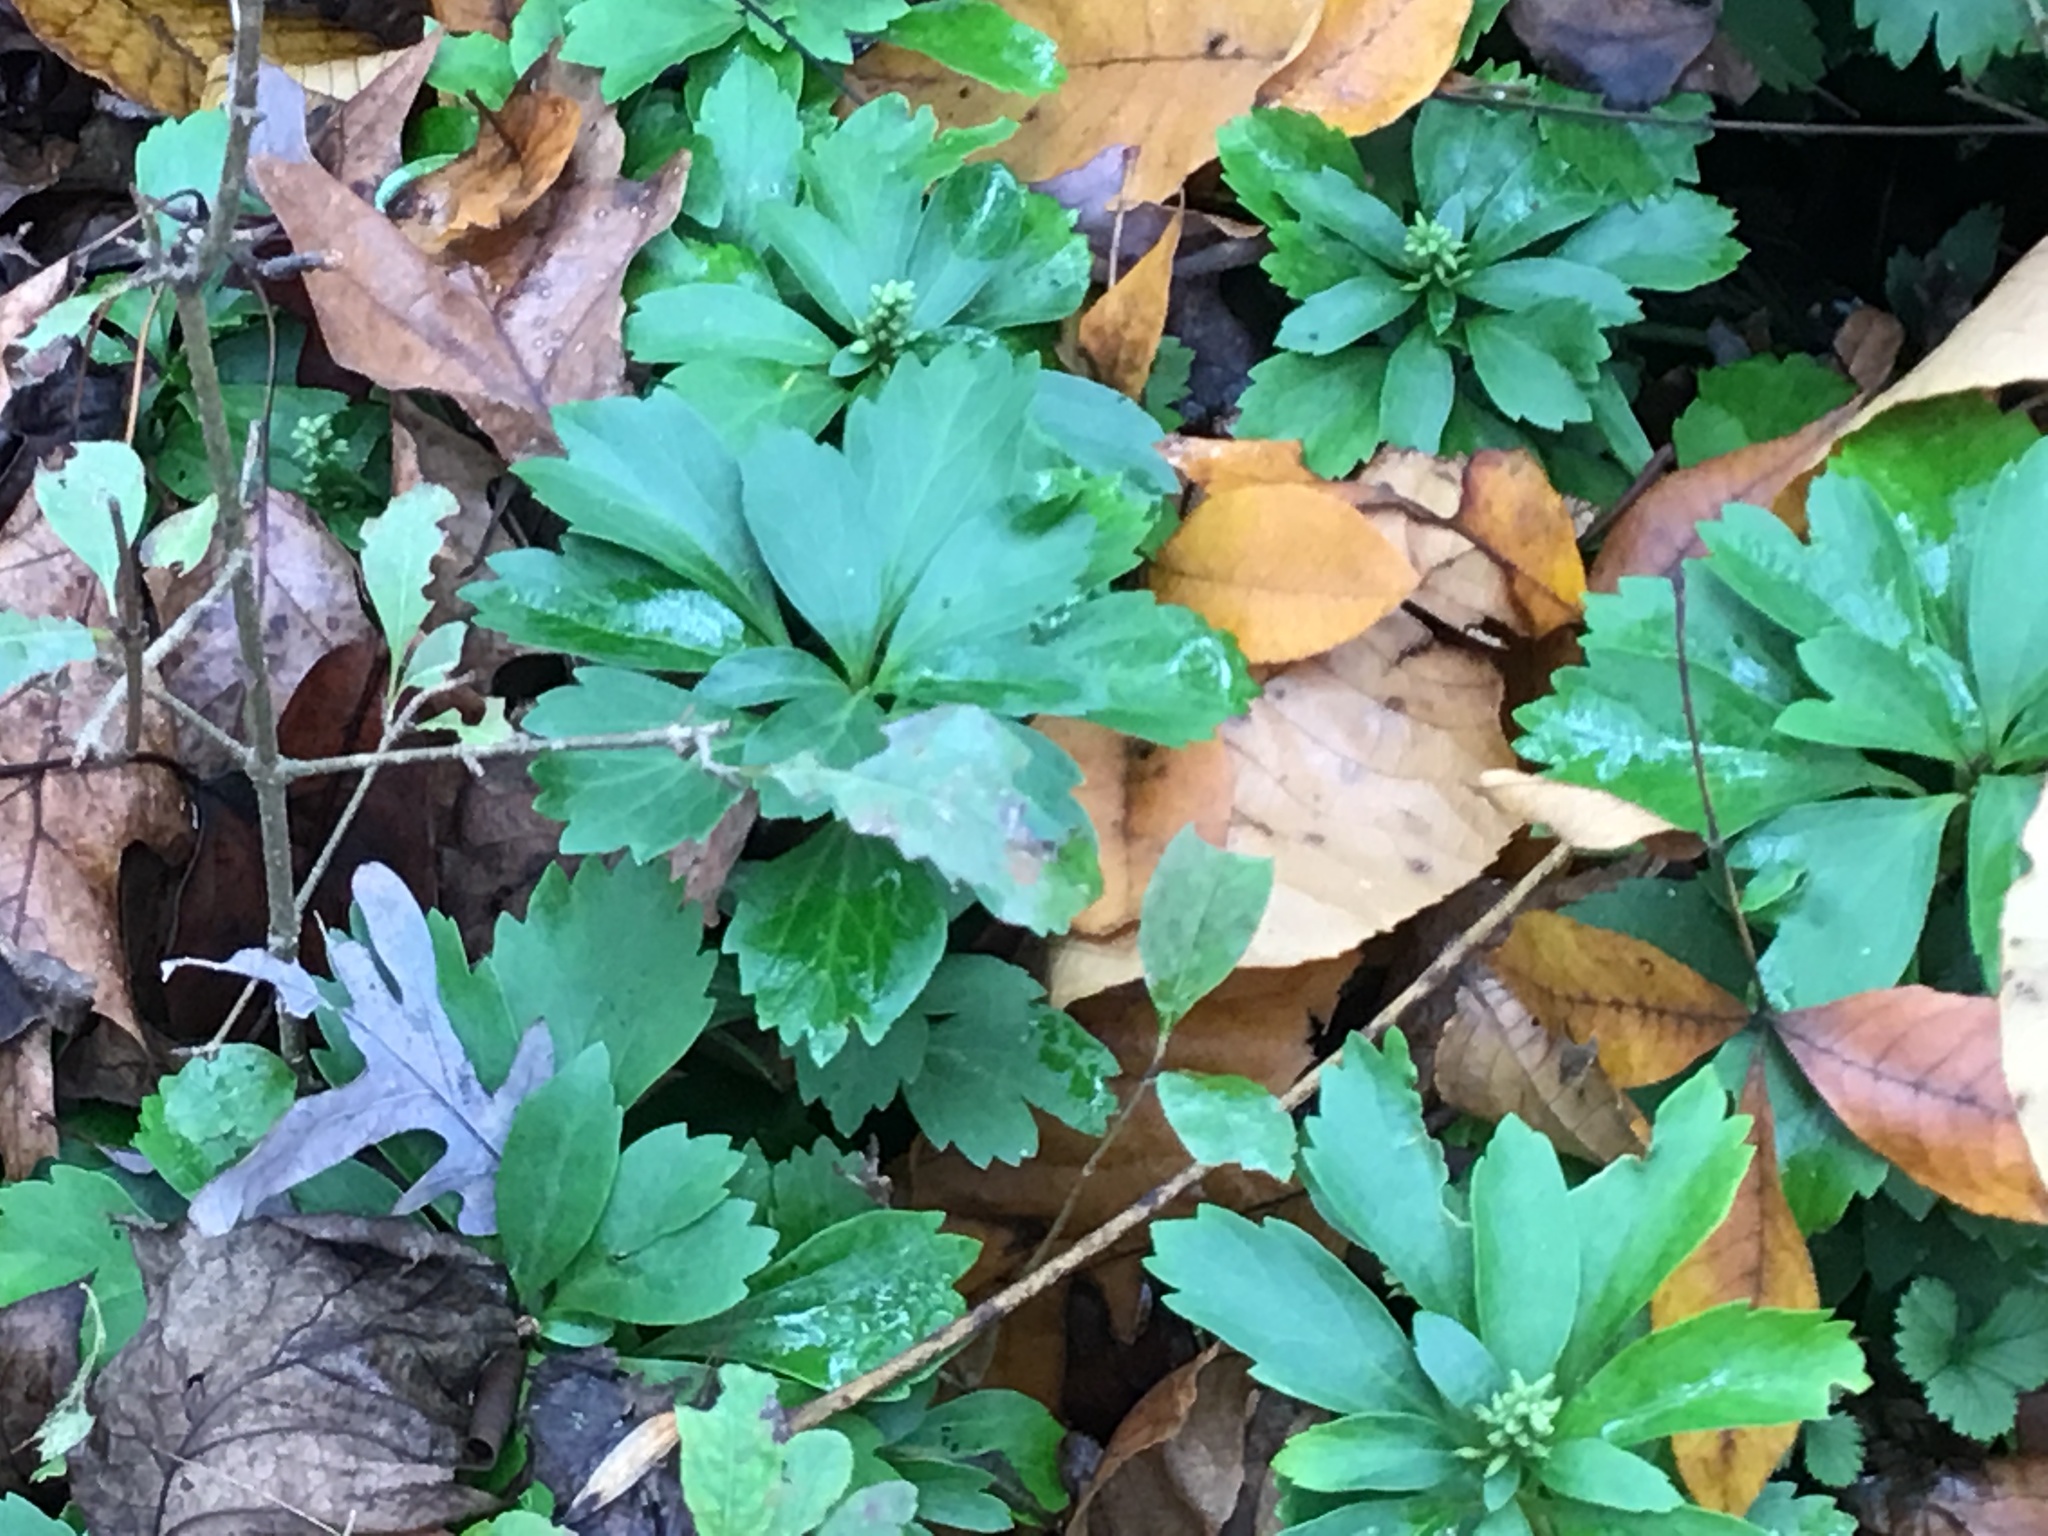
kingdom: Plantae
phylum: Tracheophyta
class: Magnoliopsida
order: Buxales
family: Buxaceae
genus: Pachysandra
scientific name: Pachysandra terminalis
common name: Japanese pachysandra
